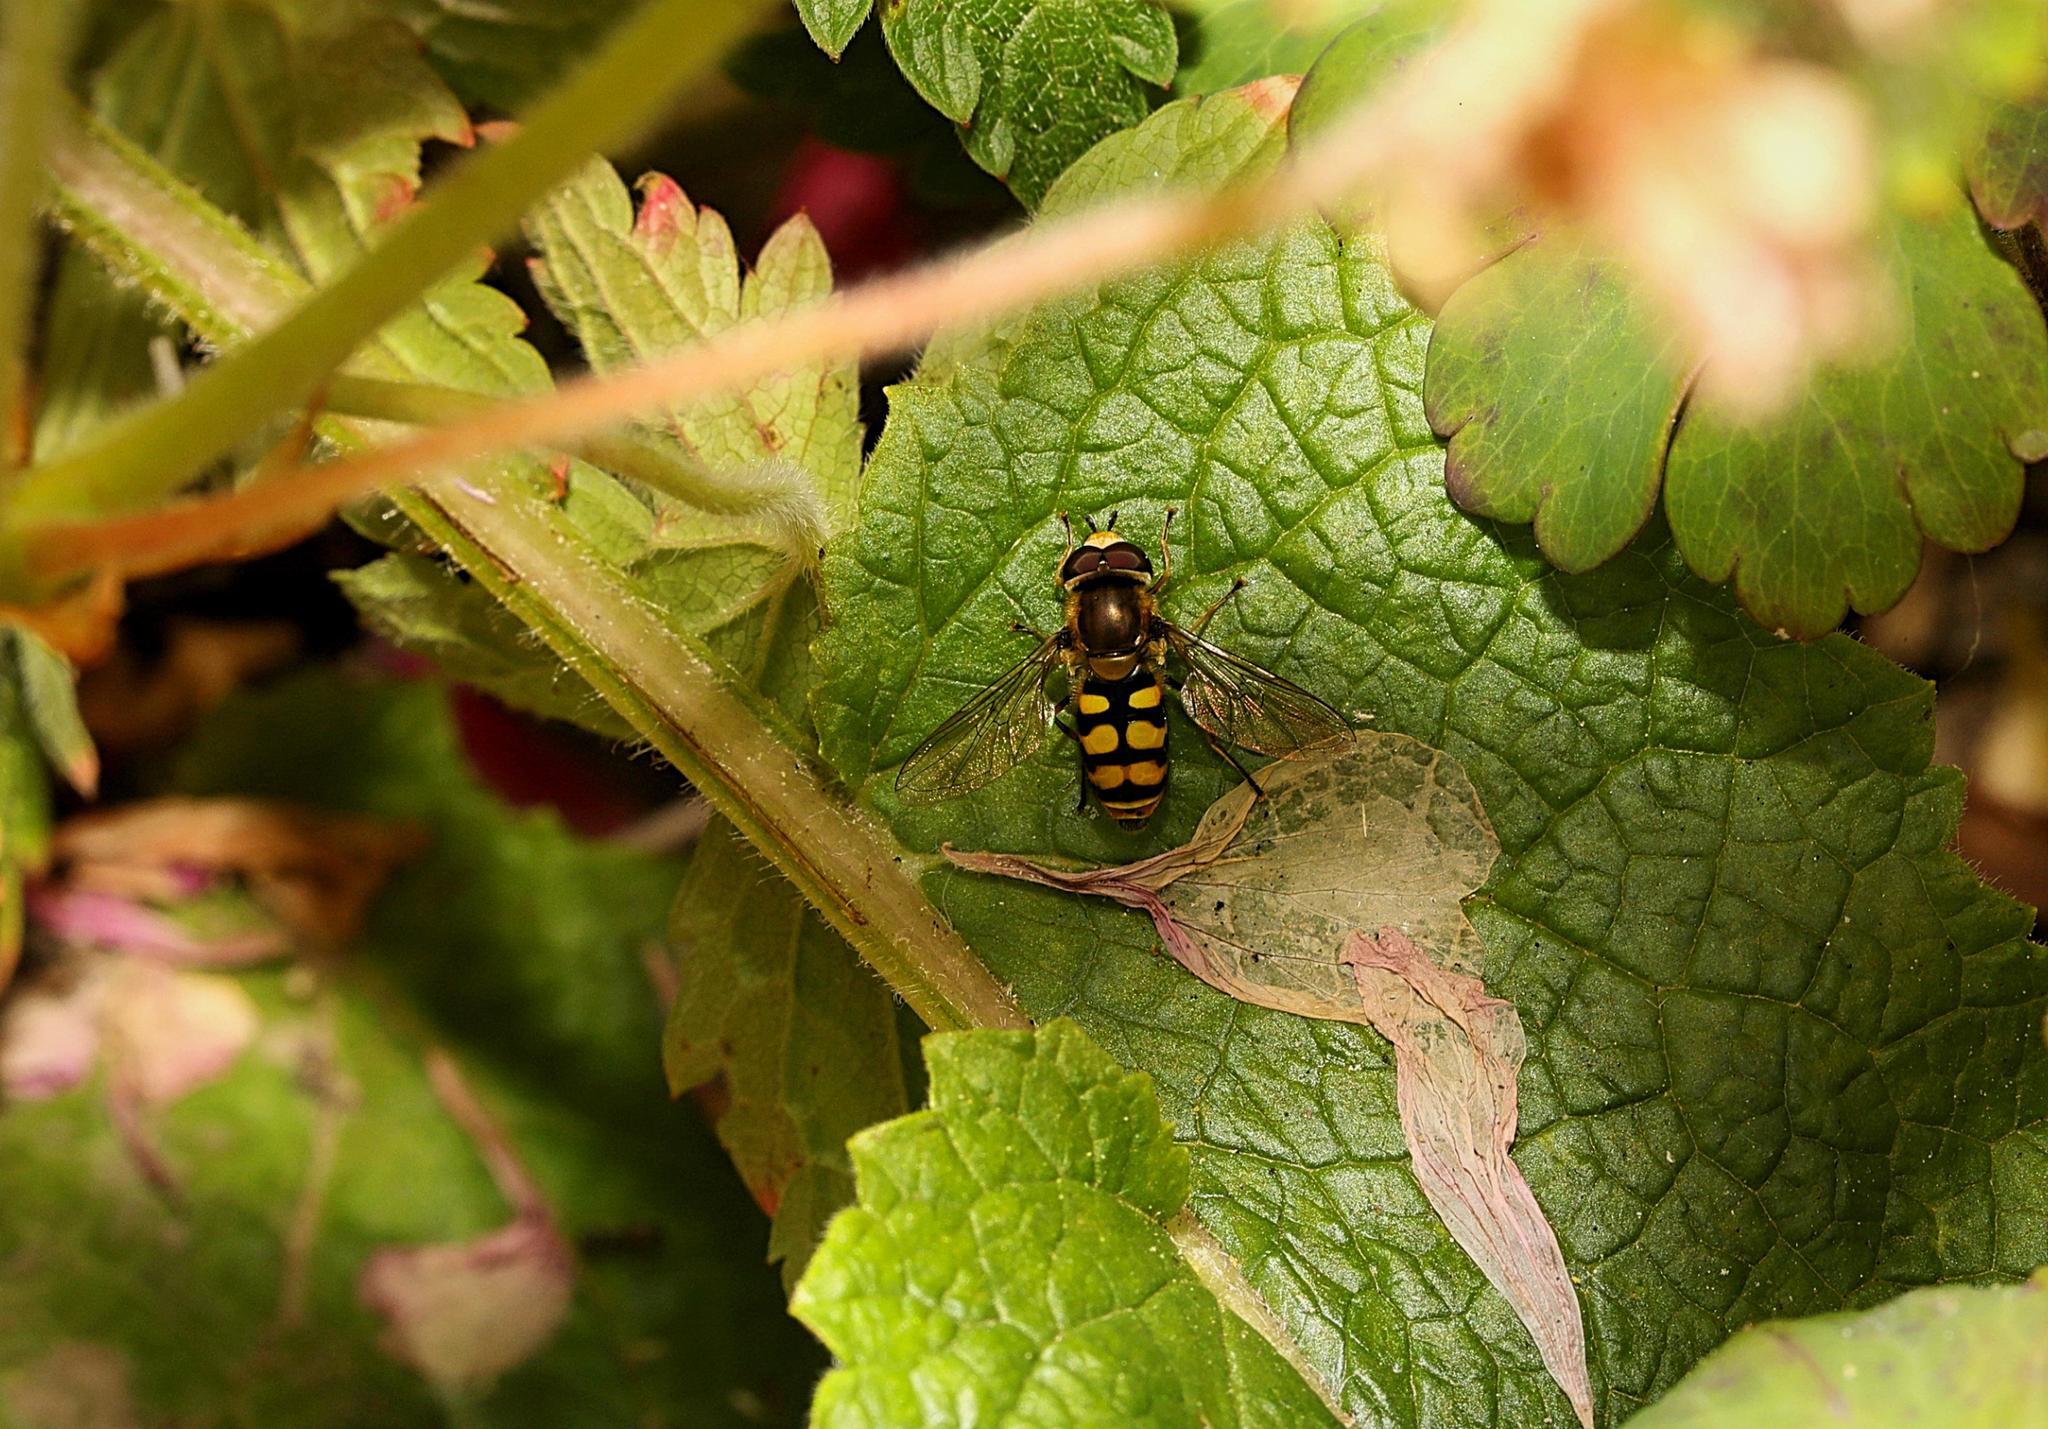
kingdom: Animalia
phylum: Arthropoda
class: Insecta
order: Diptera
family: Syrphidae
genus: Eupeodes
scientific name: Eupeodes corollae
